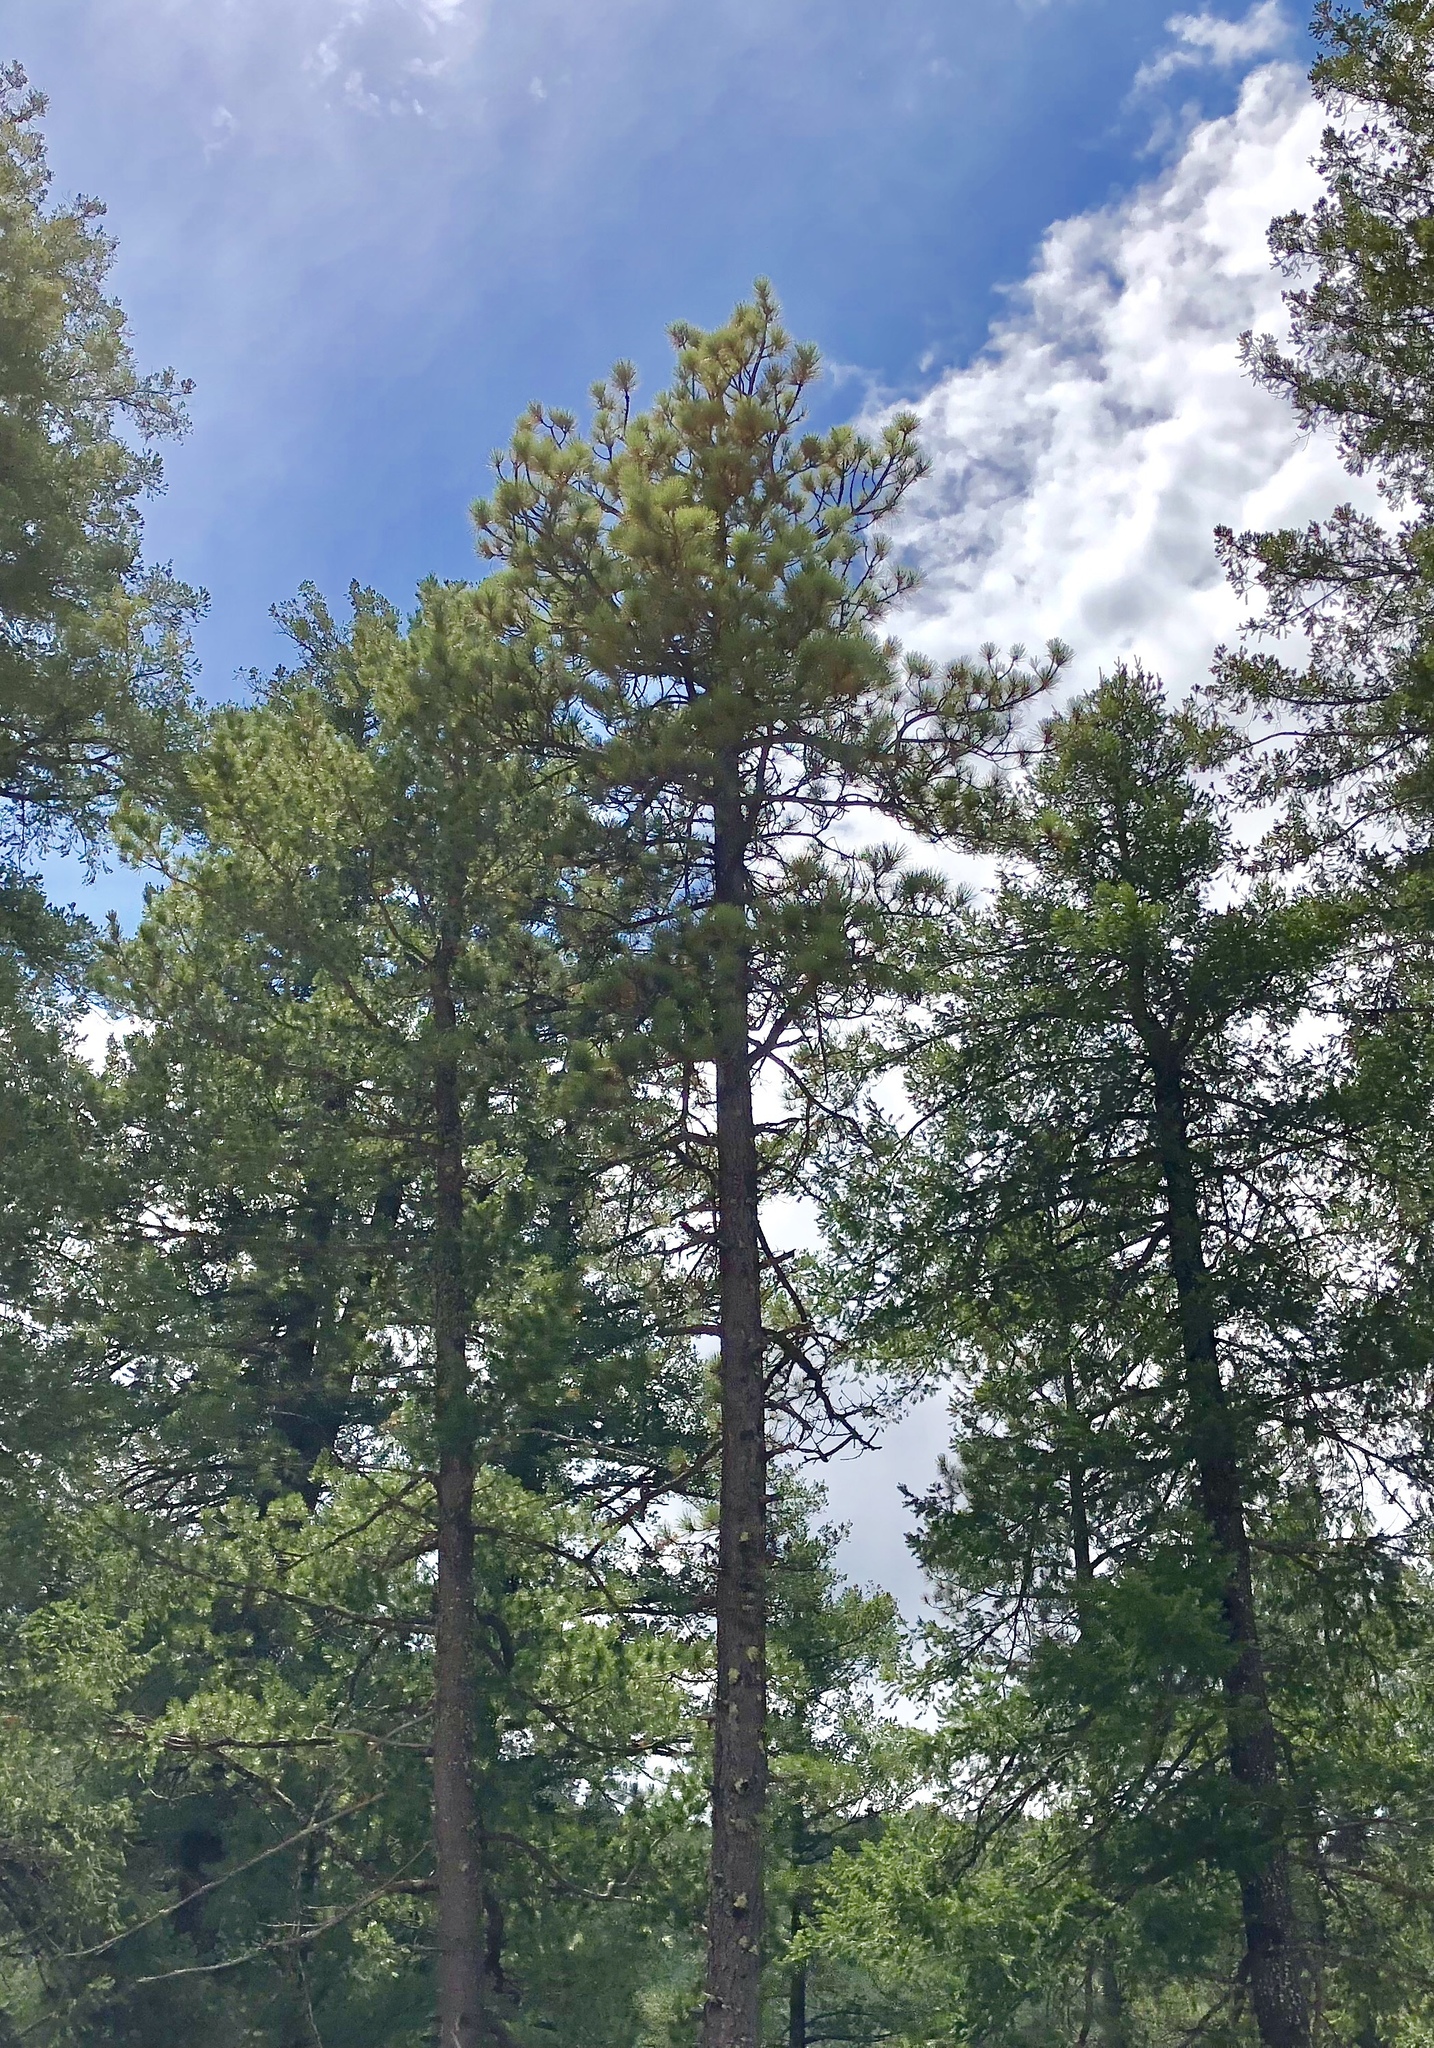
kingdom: Plantae
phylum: Tracheophyta
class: Pinopsida
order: Pinales
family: Pinaceae
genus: Pinus
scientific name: Pinus ponderosa
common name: Western yellow-pine
